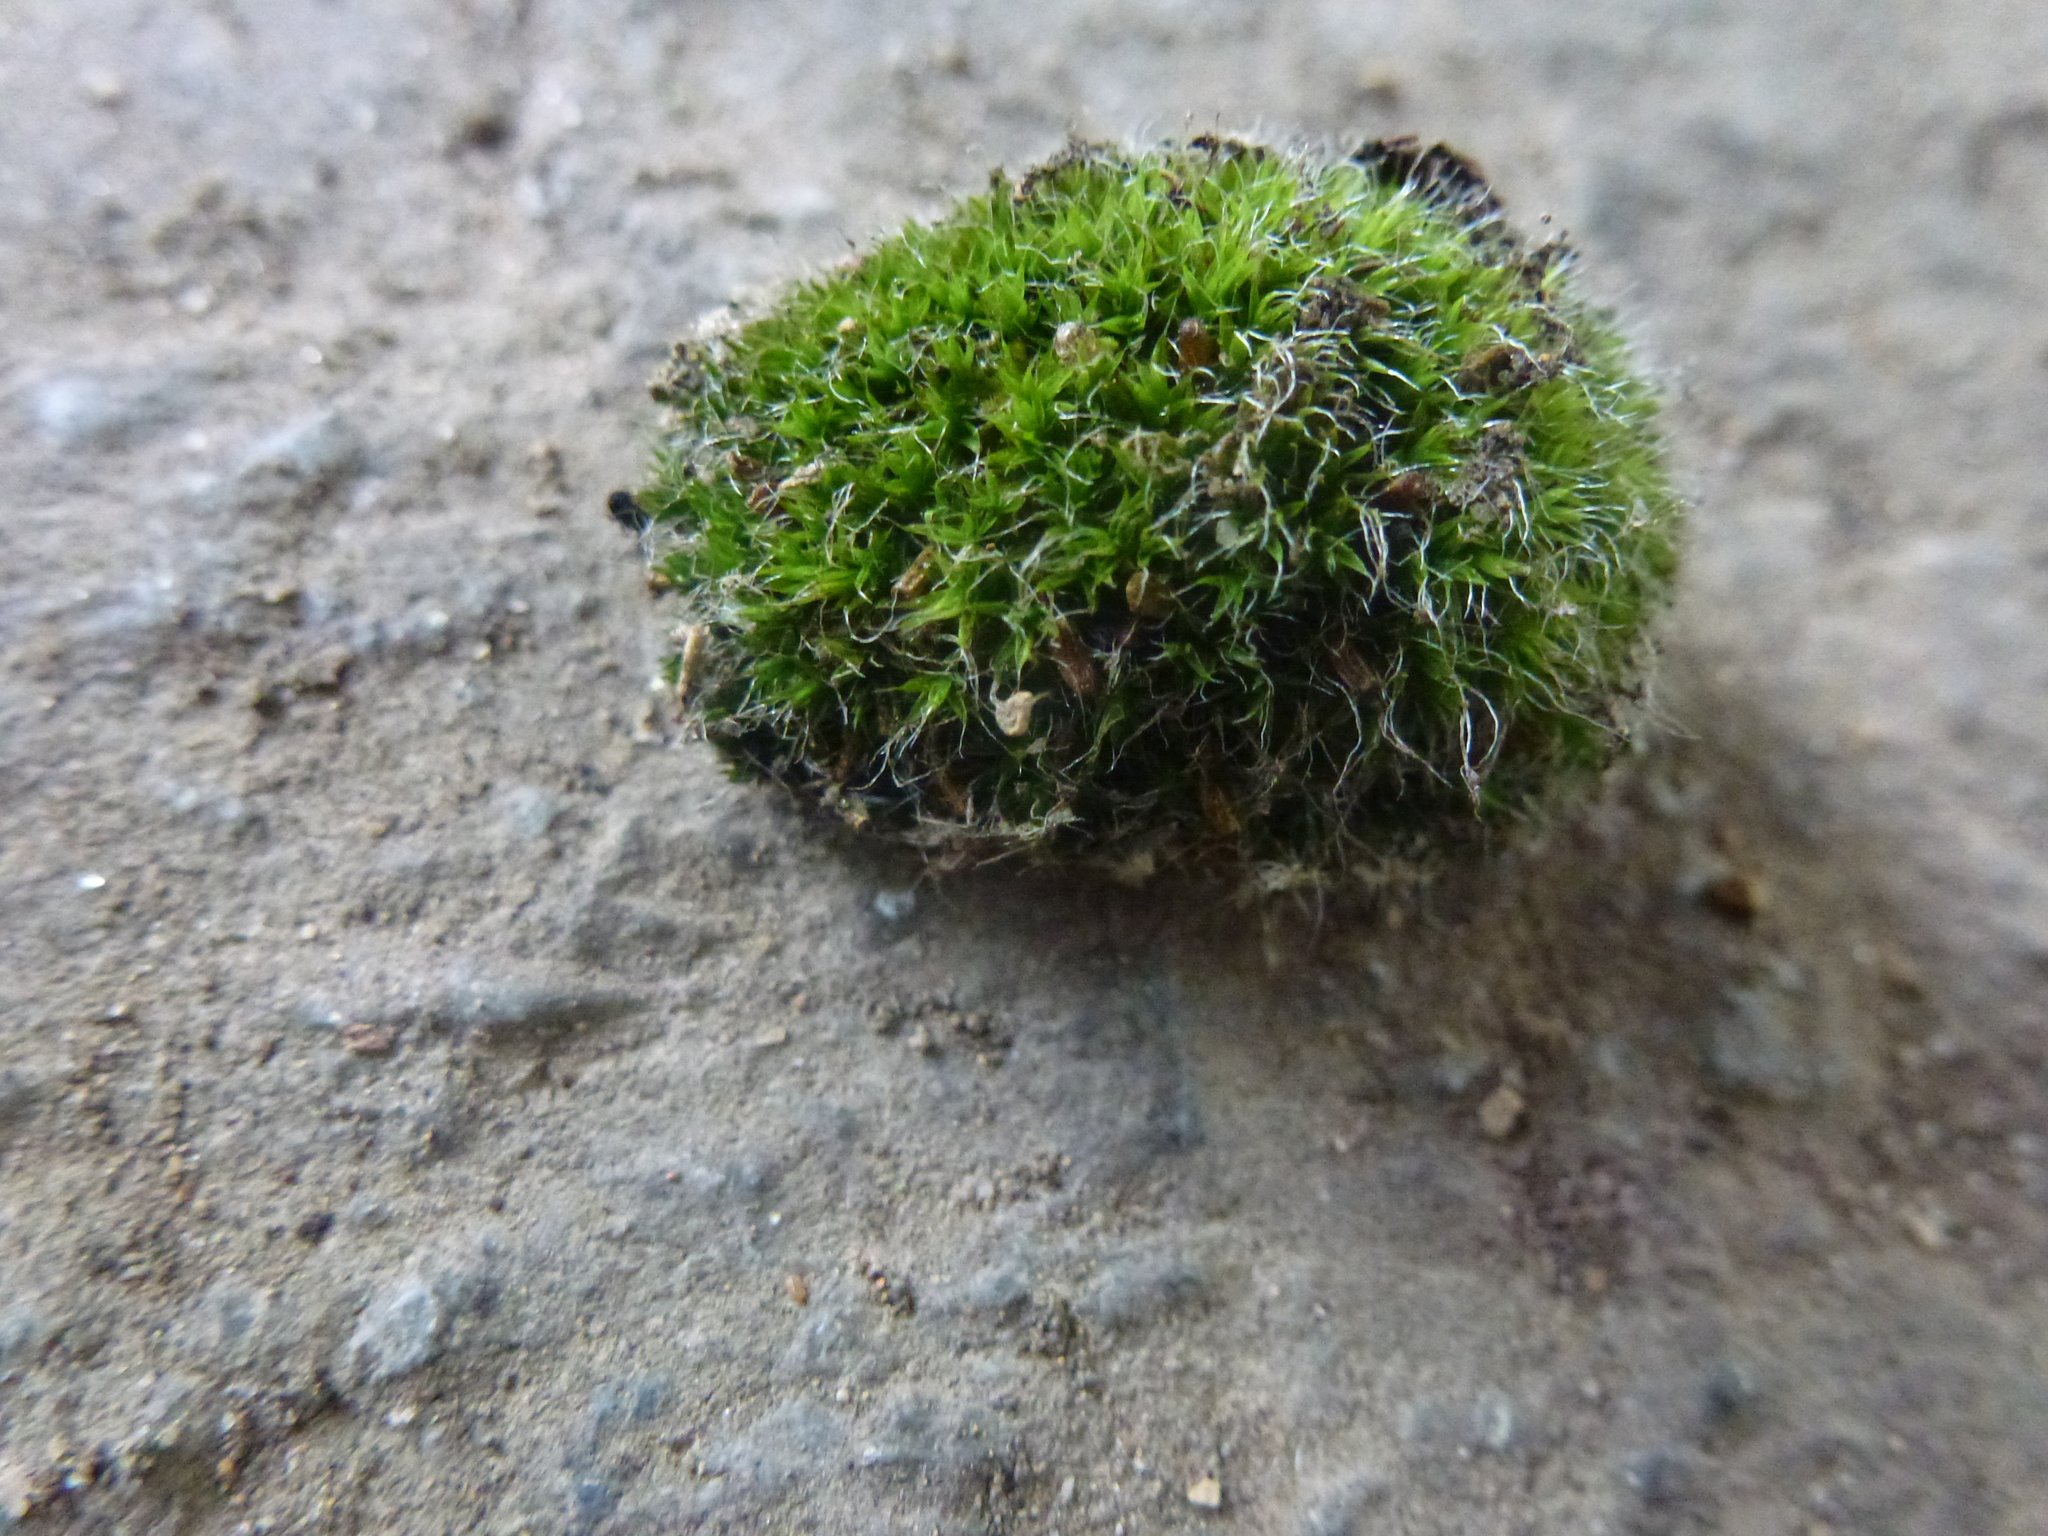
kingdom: Plantae
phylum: Bryophyta
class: Bryopsida
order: Grimmiales
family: Grimmiaceae
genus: Grimmia
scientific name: Grimmia pulvinata
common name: Grey-cushioned grimmia
